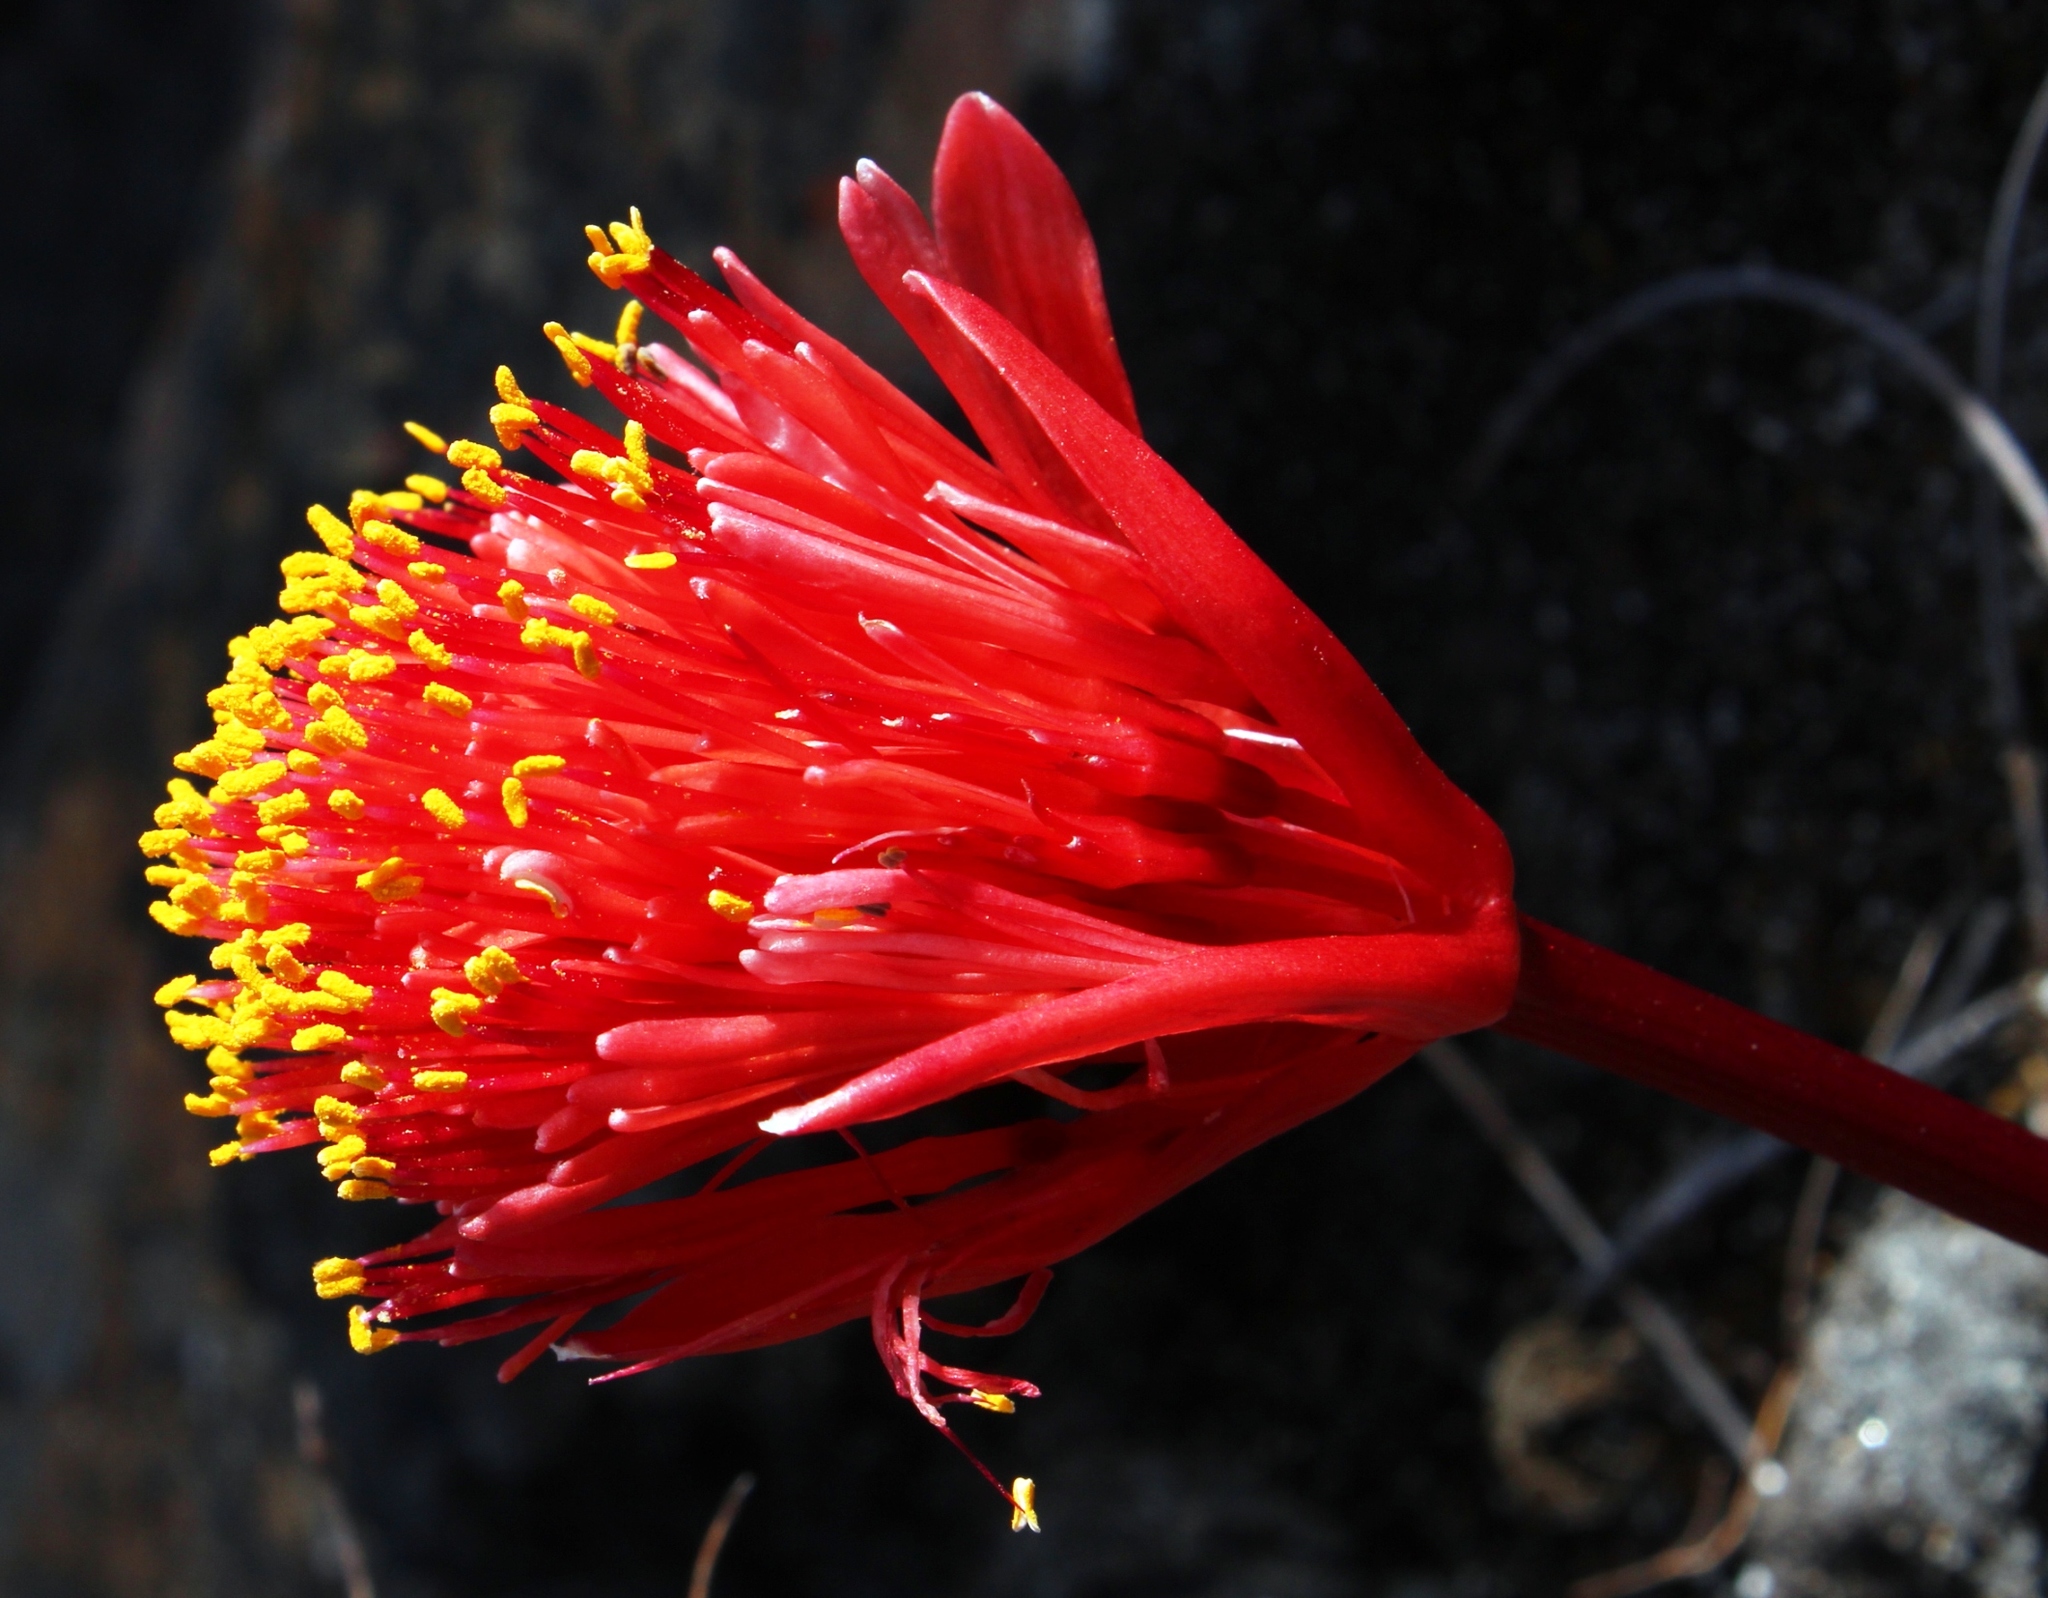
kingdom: Plantae
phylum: Tracheophyta
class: Liliopsida
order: Asparagales
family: Amaryllidaceae
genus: Haemanthus
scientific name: Haemanthus coccineus
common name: Cape-tulip
